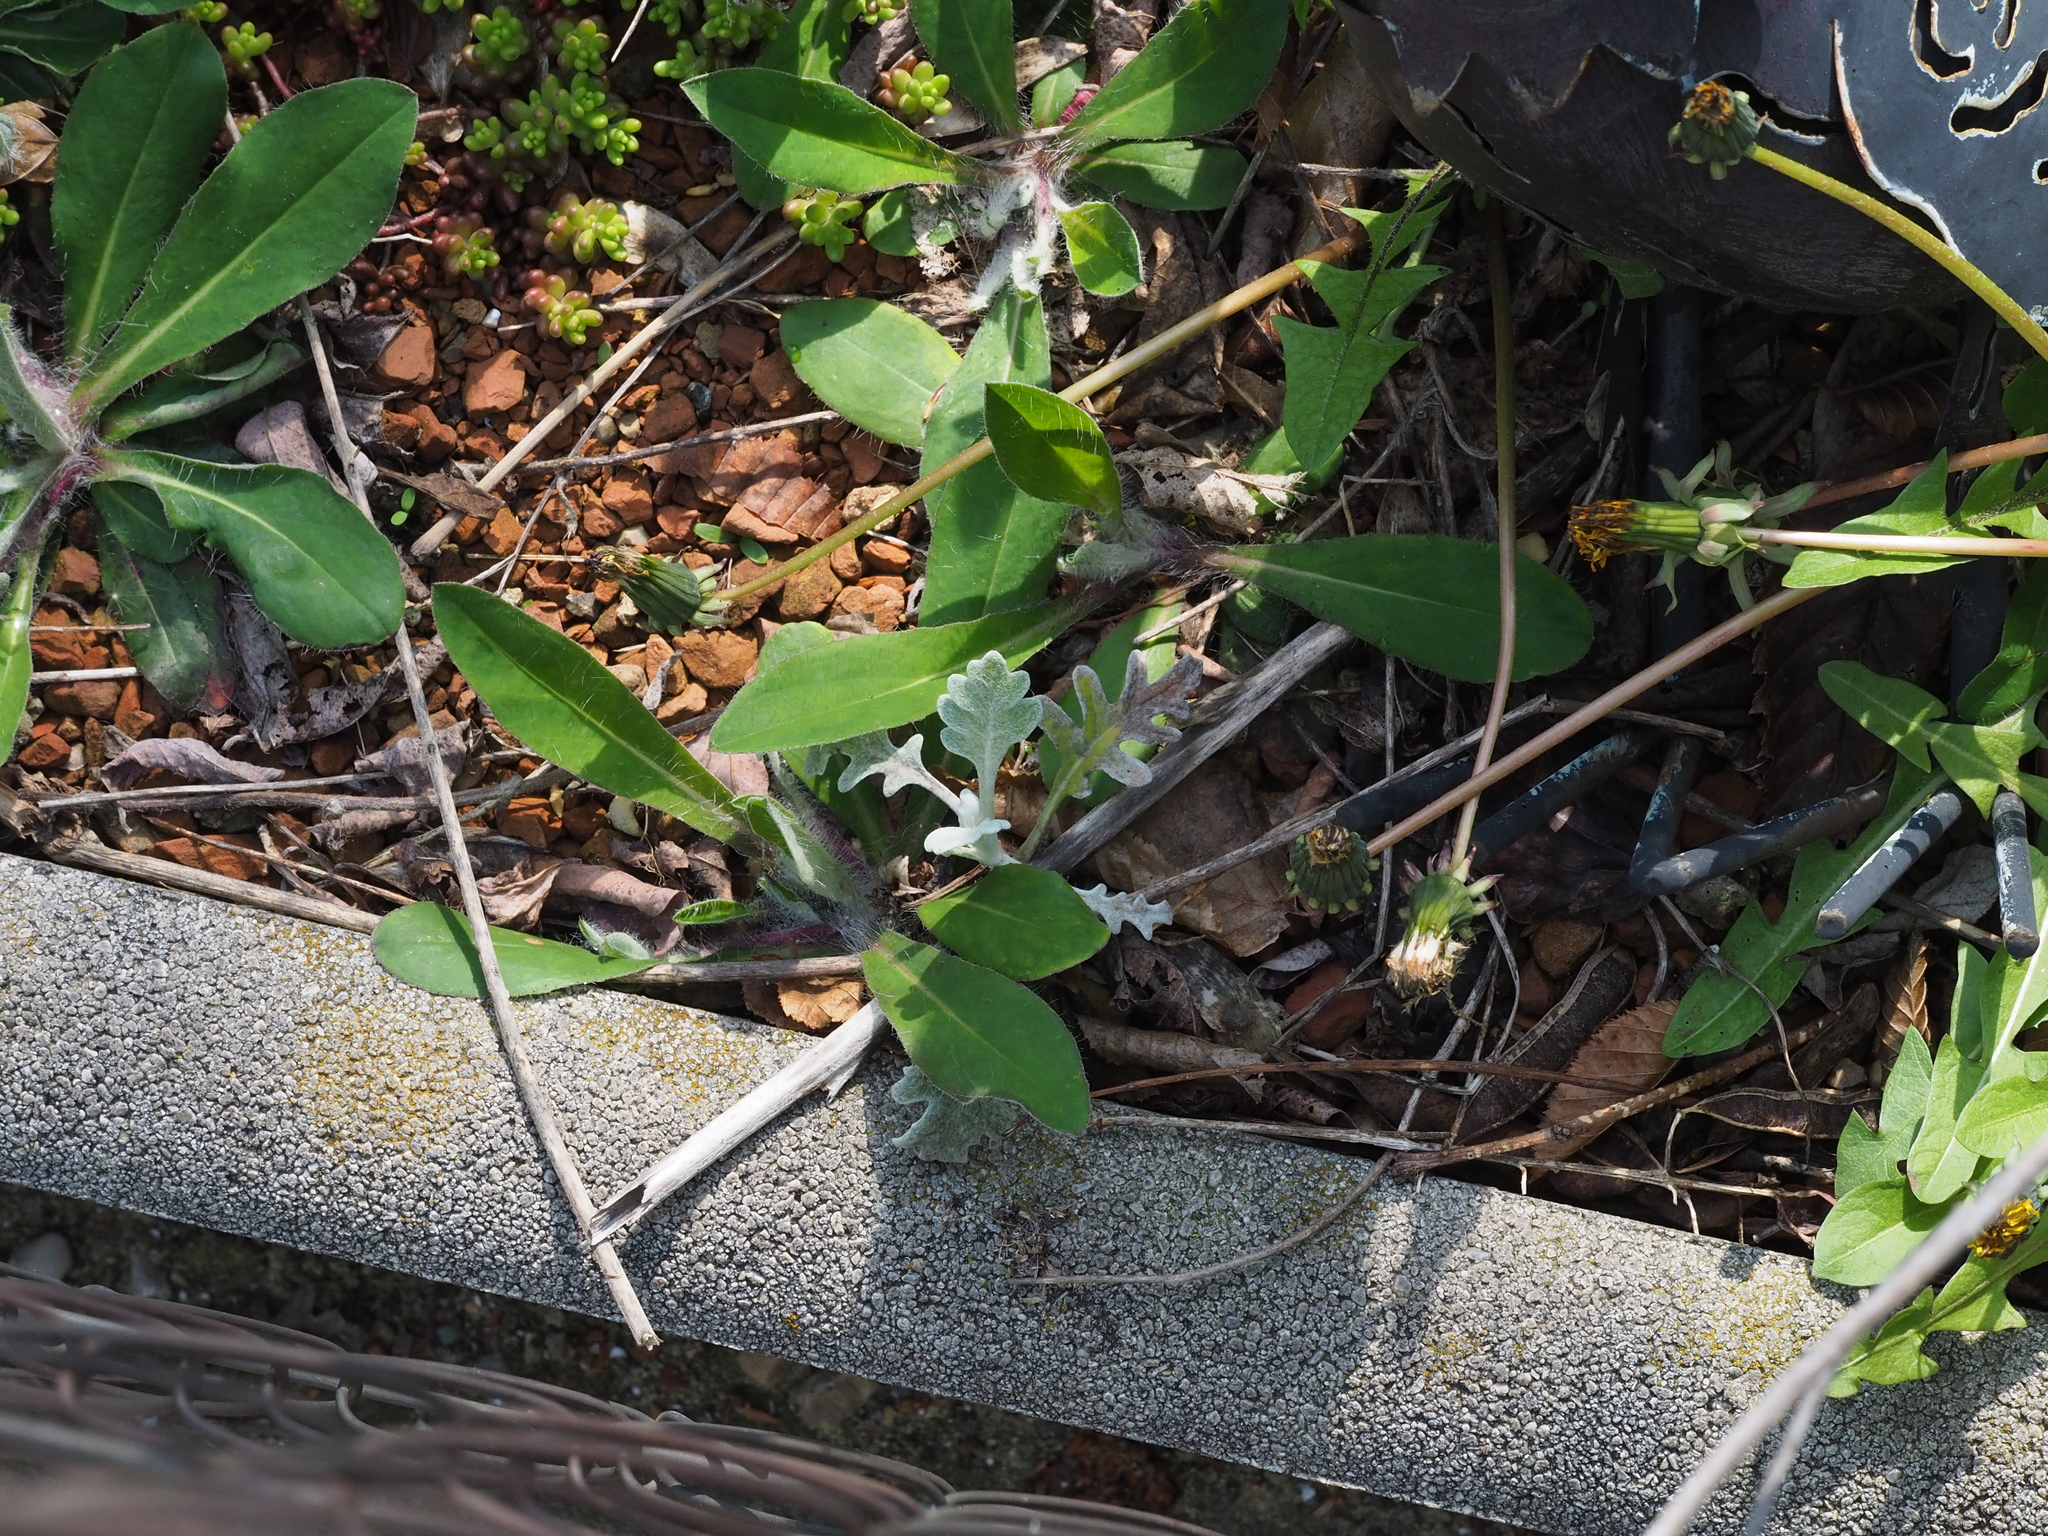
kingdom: Plantae
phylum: Tracheophyta
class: Magnoliopsida
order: Asterales
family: Asteraceae
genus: Jacobaea
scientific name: Jacobaea maritima
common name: Silver ragwort
